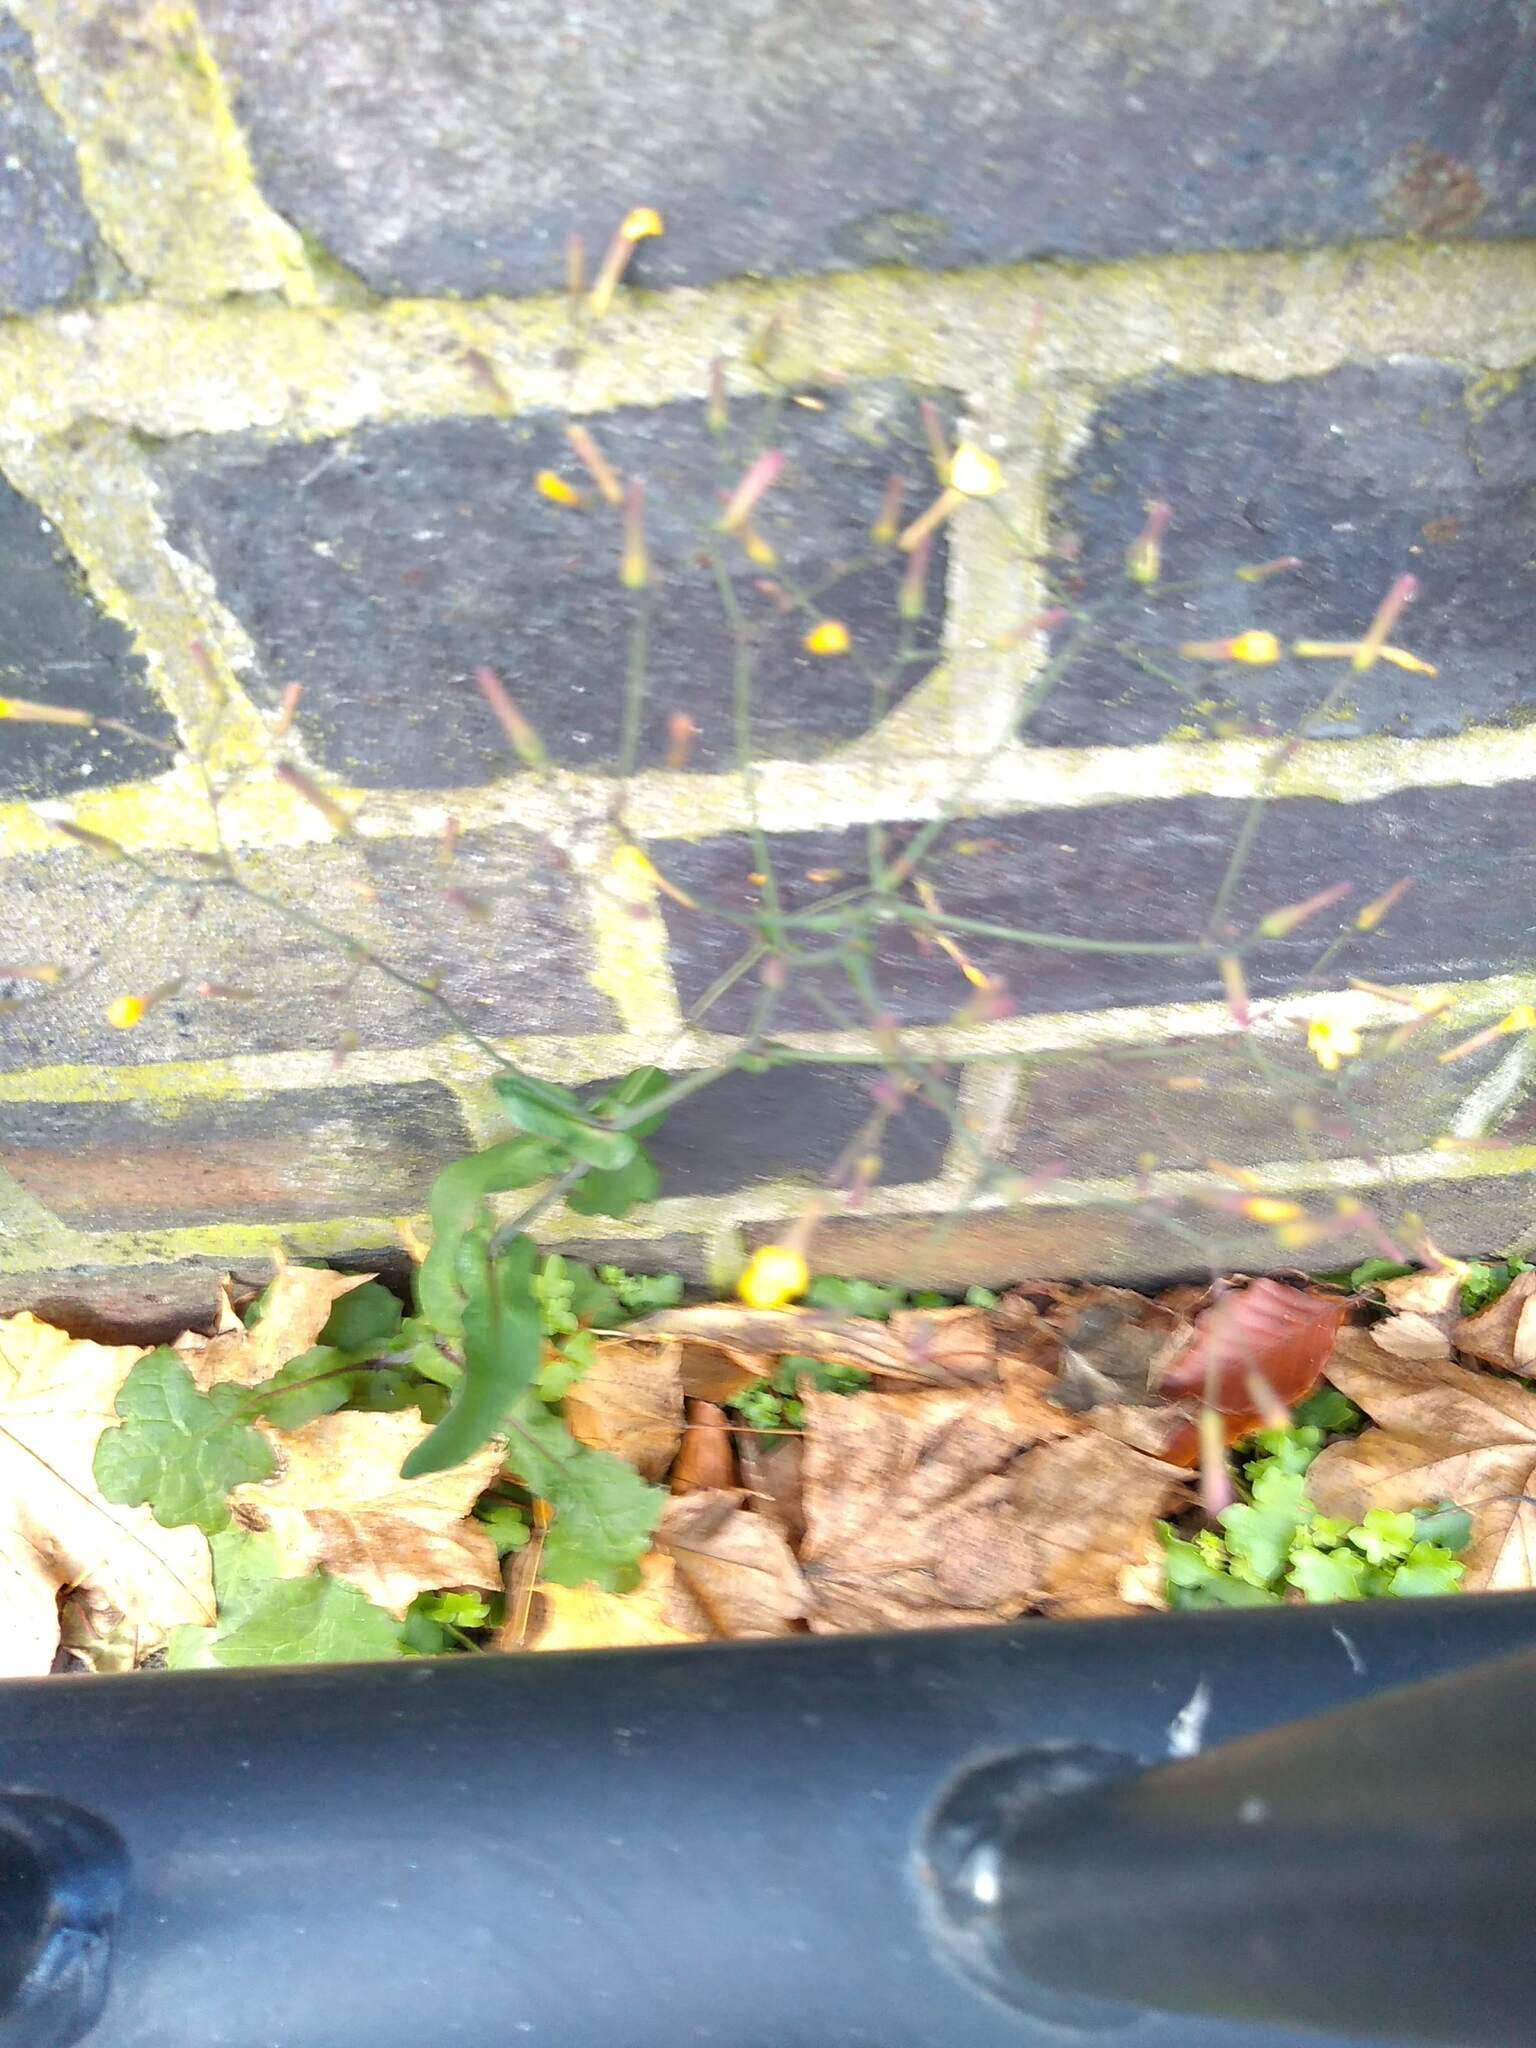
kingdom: Plantae
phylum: Tracheophyta
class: Magnoliopsida
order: Asterales
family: Asteraceae
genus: Mycelis
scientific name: Mycelis muralis
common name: Wall lettuce
